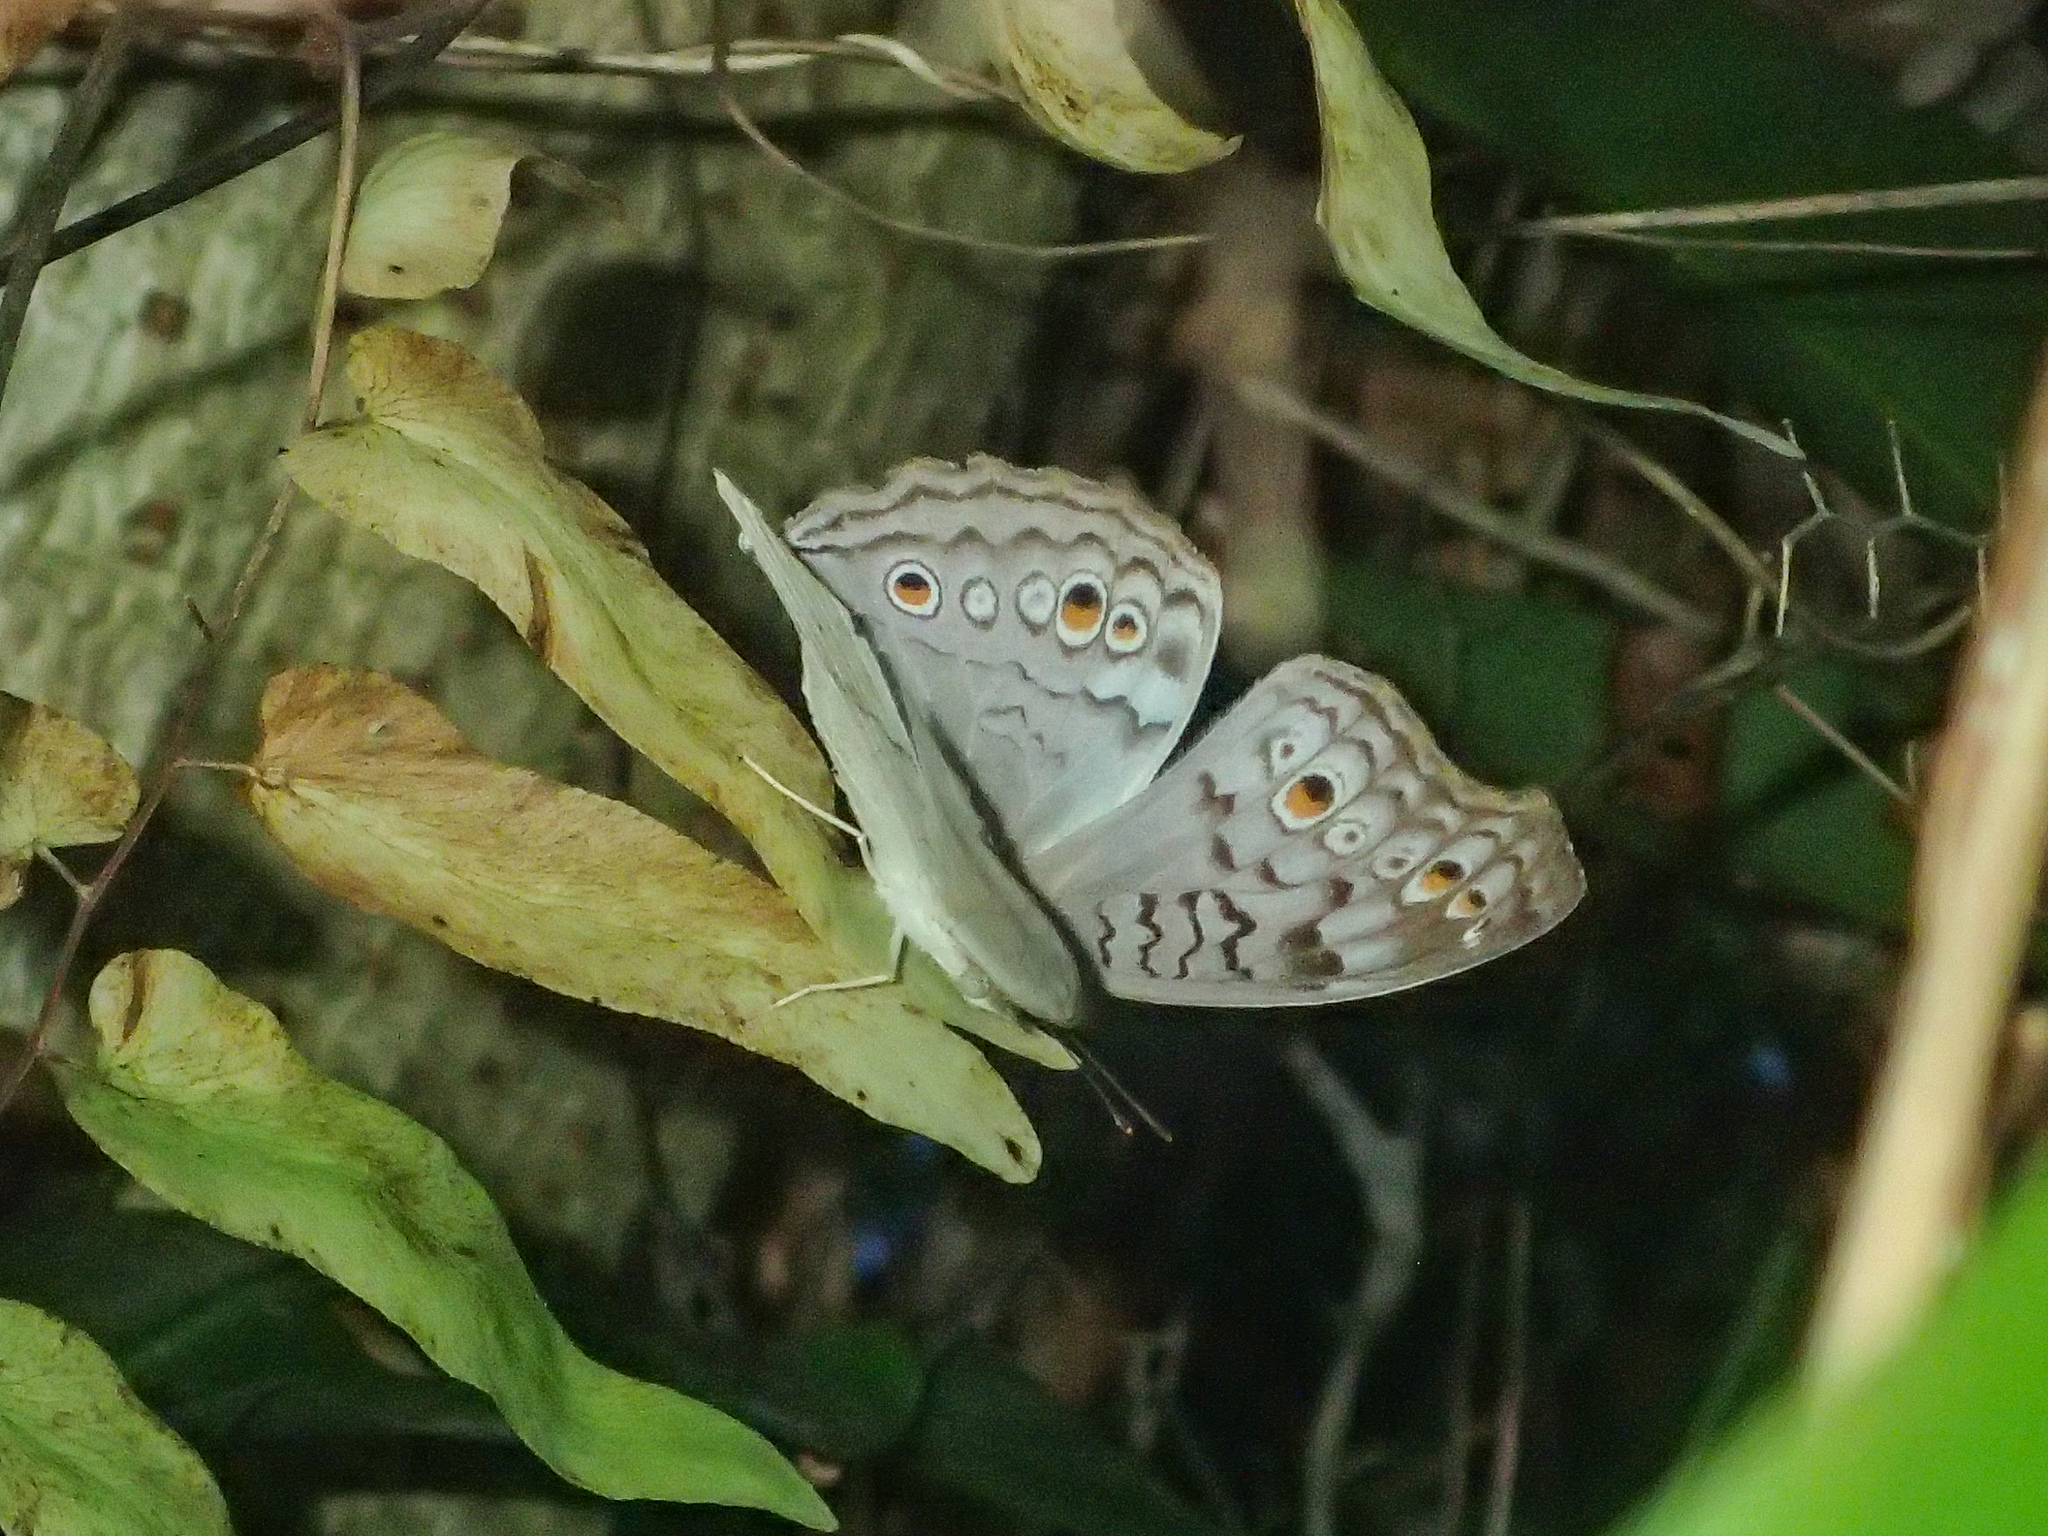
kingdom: Animalia
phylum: Arthropoda
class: Insecta
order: Lepidoptera
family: Nymphalidae
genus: Junonia
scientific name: Junonia atlites
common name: Grey pansy
